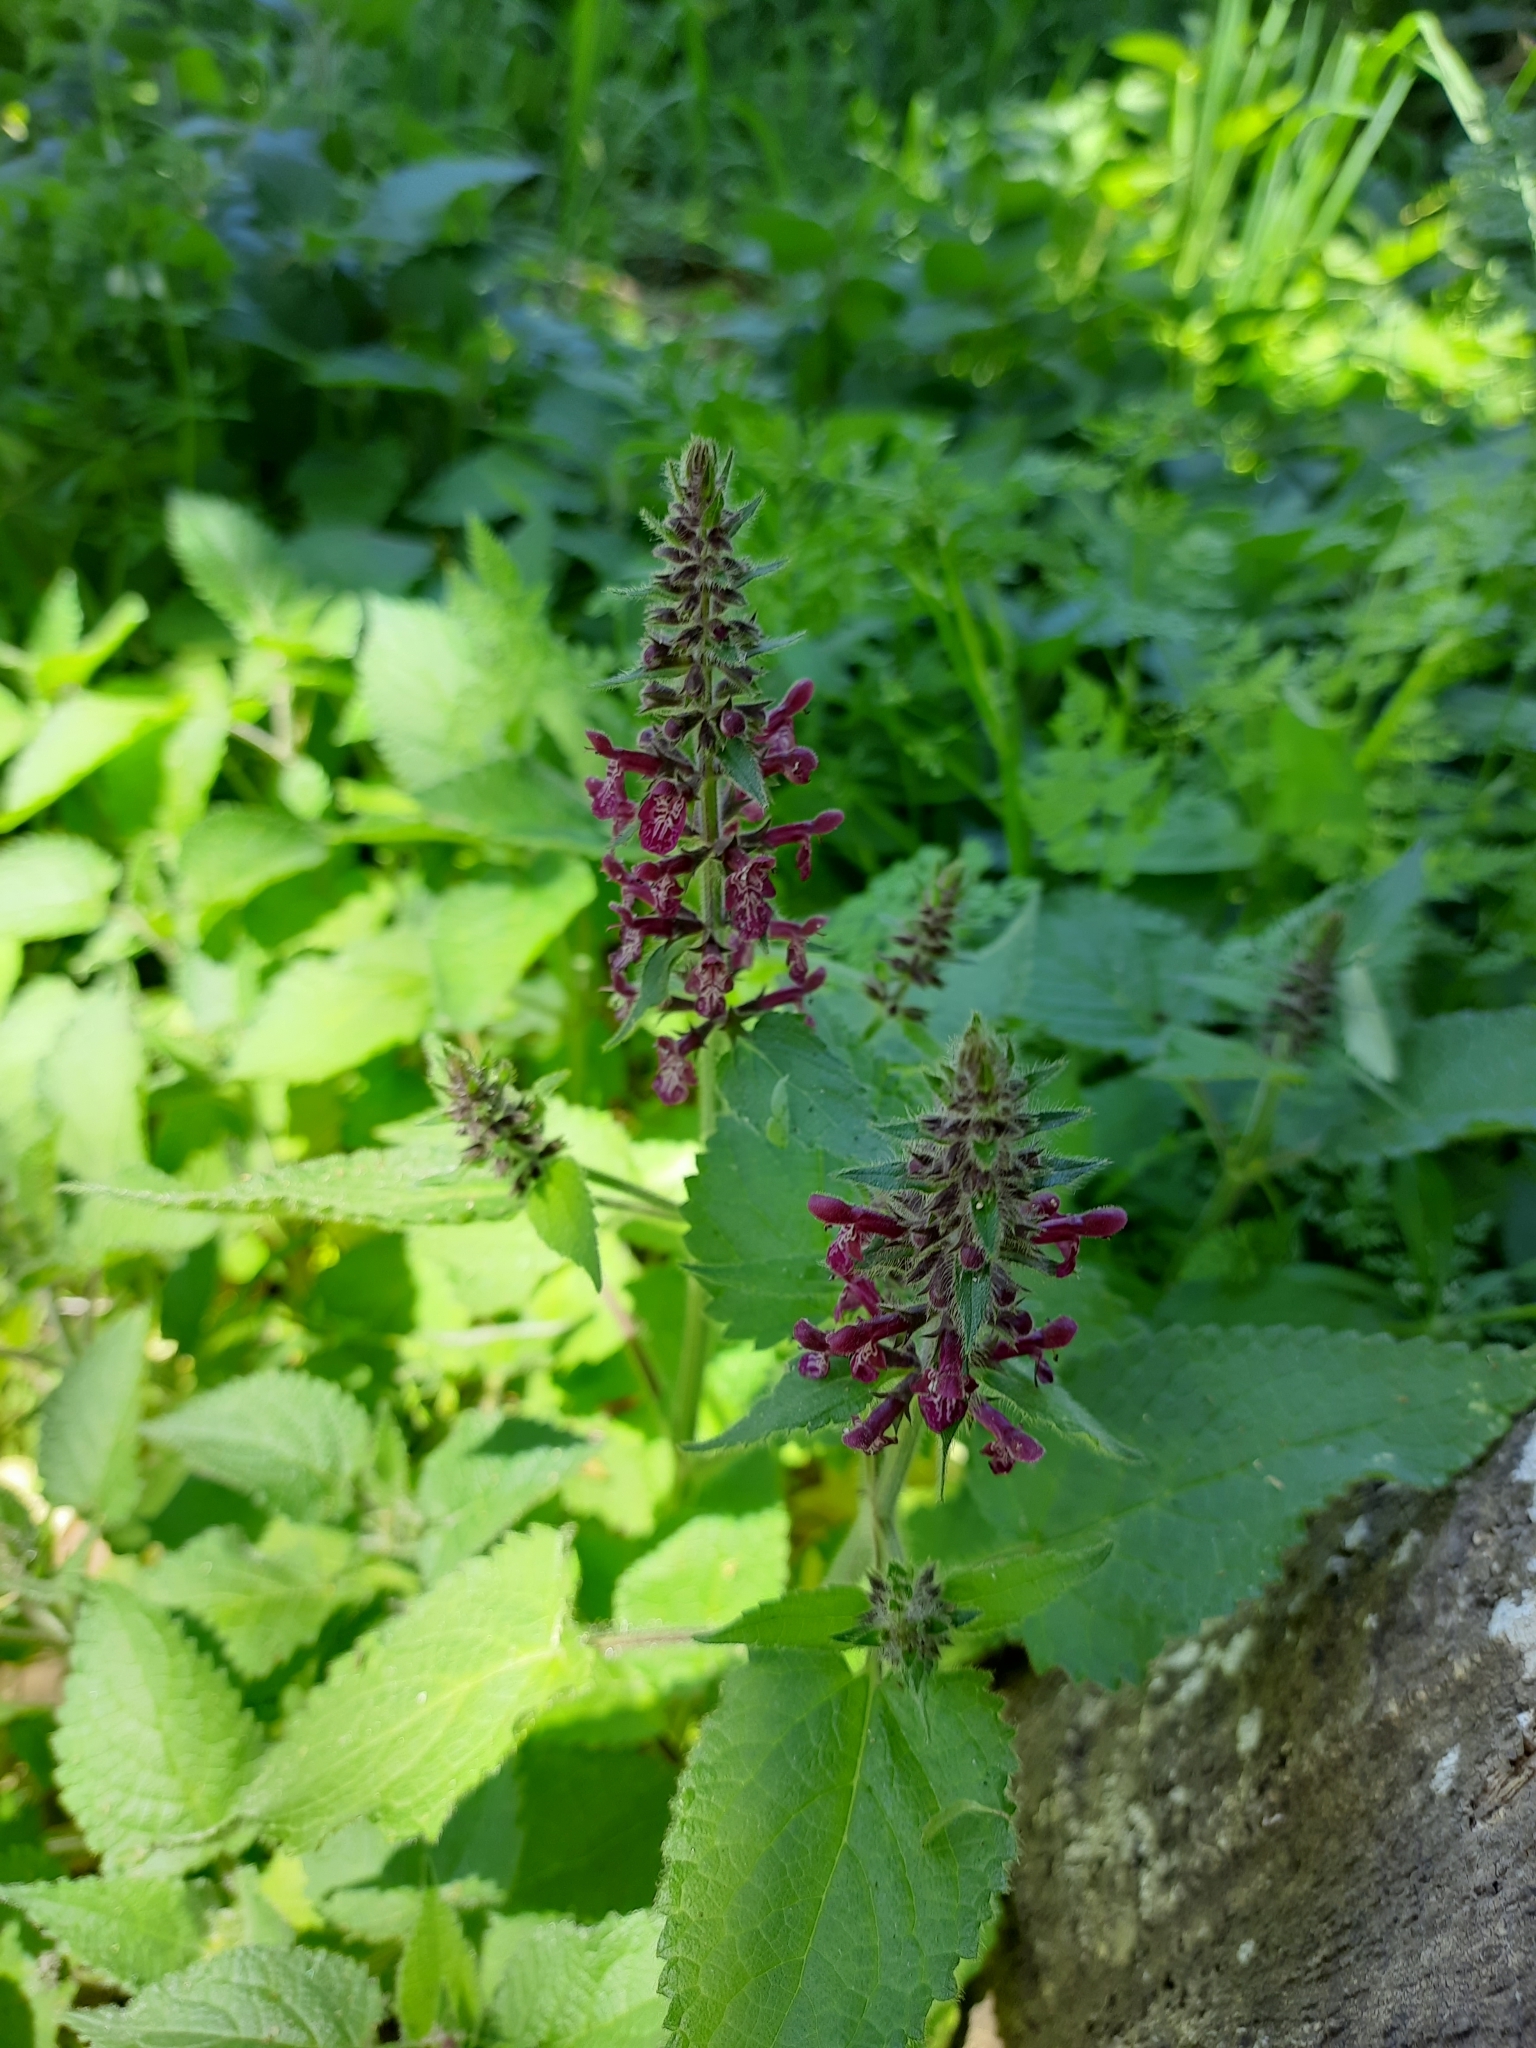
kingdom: Plantae
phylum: Tracheophyta
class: Magnoliopsida
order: Lamiales
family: Lamiaceae
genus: Stachys
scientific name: Stachys sylvatica
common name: Hedge woundwort
